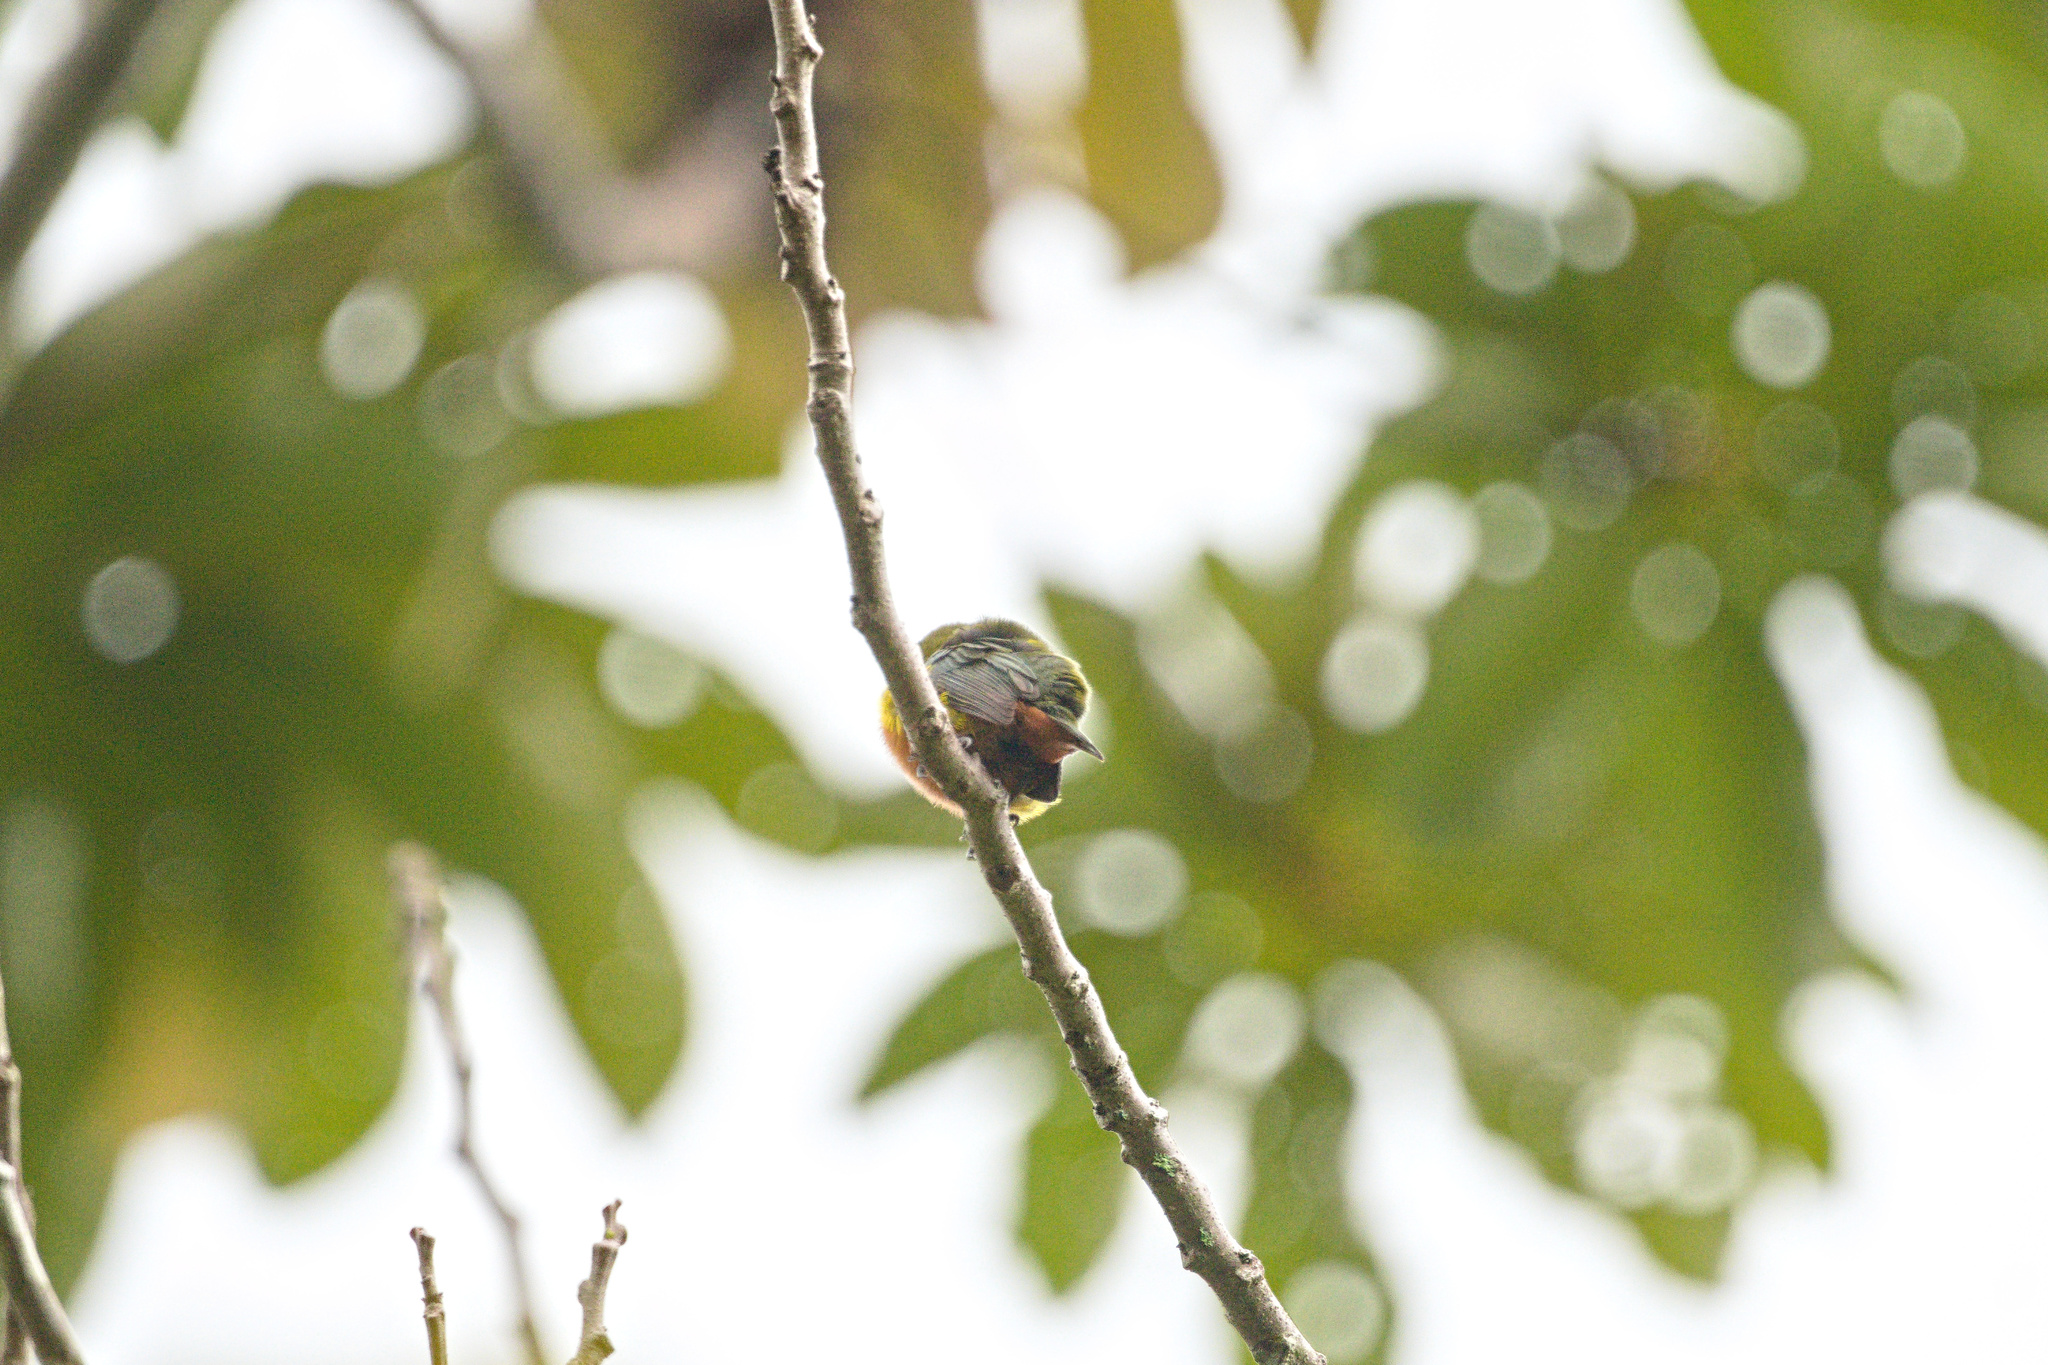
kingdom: Animalia
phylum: Chordata
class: Aves
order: Passeriformes
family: Fringillidae
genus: Euphonia
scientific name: Euphonia gouldi
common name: Olive-backed euphonia
